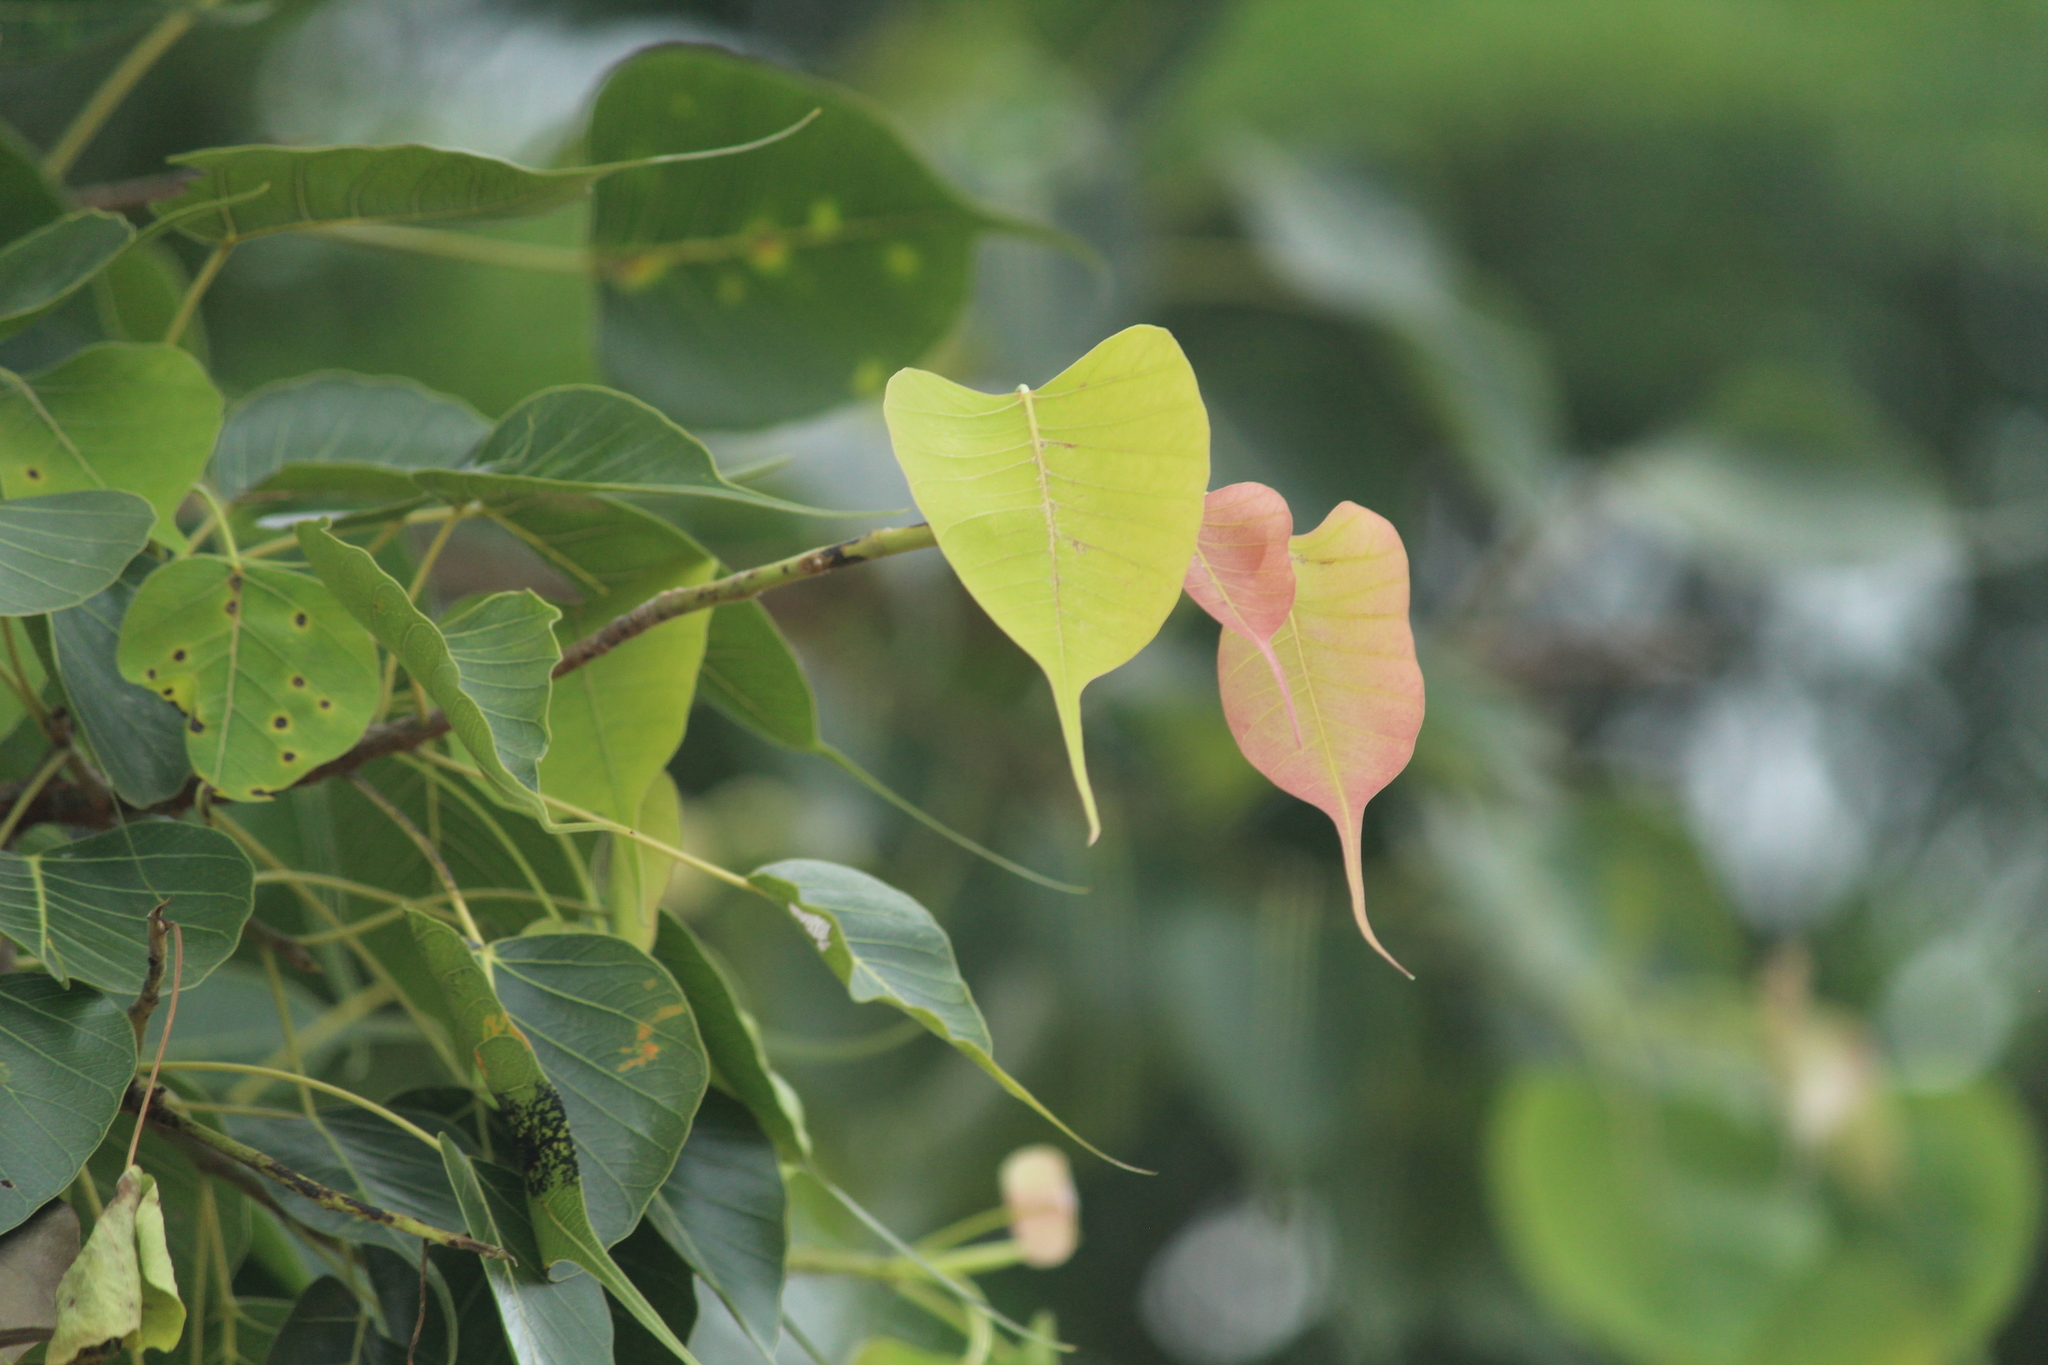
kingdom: Plantae
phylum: Tracheophyta
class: Magnoliopsida
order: Rosales
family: Moraceae
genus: Ficus
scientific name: Ficus religiosa
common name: Bodhi tree
